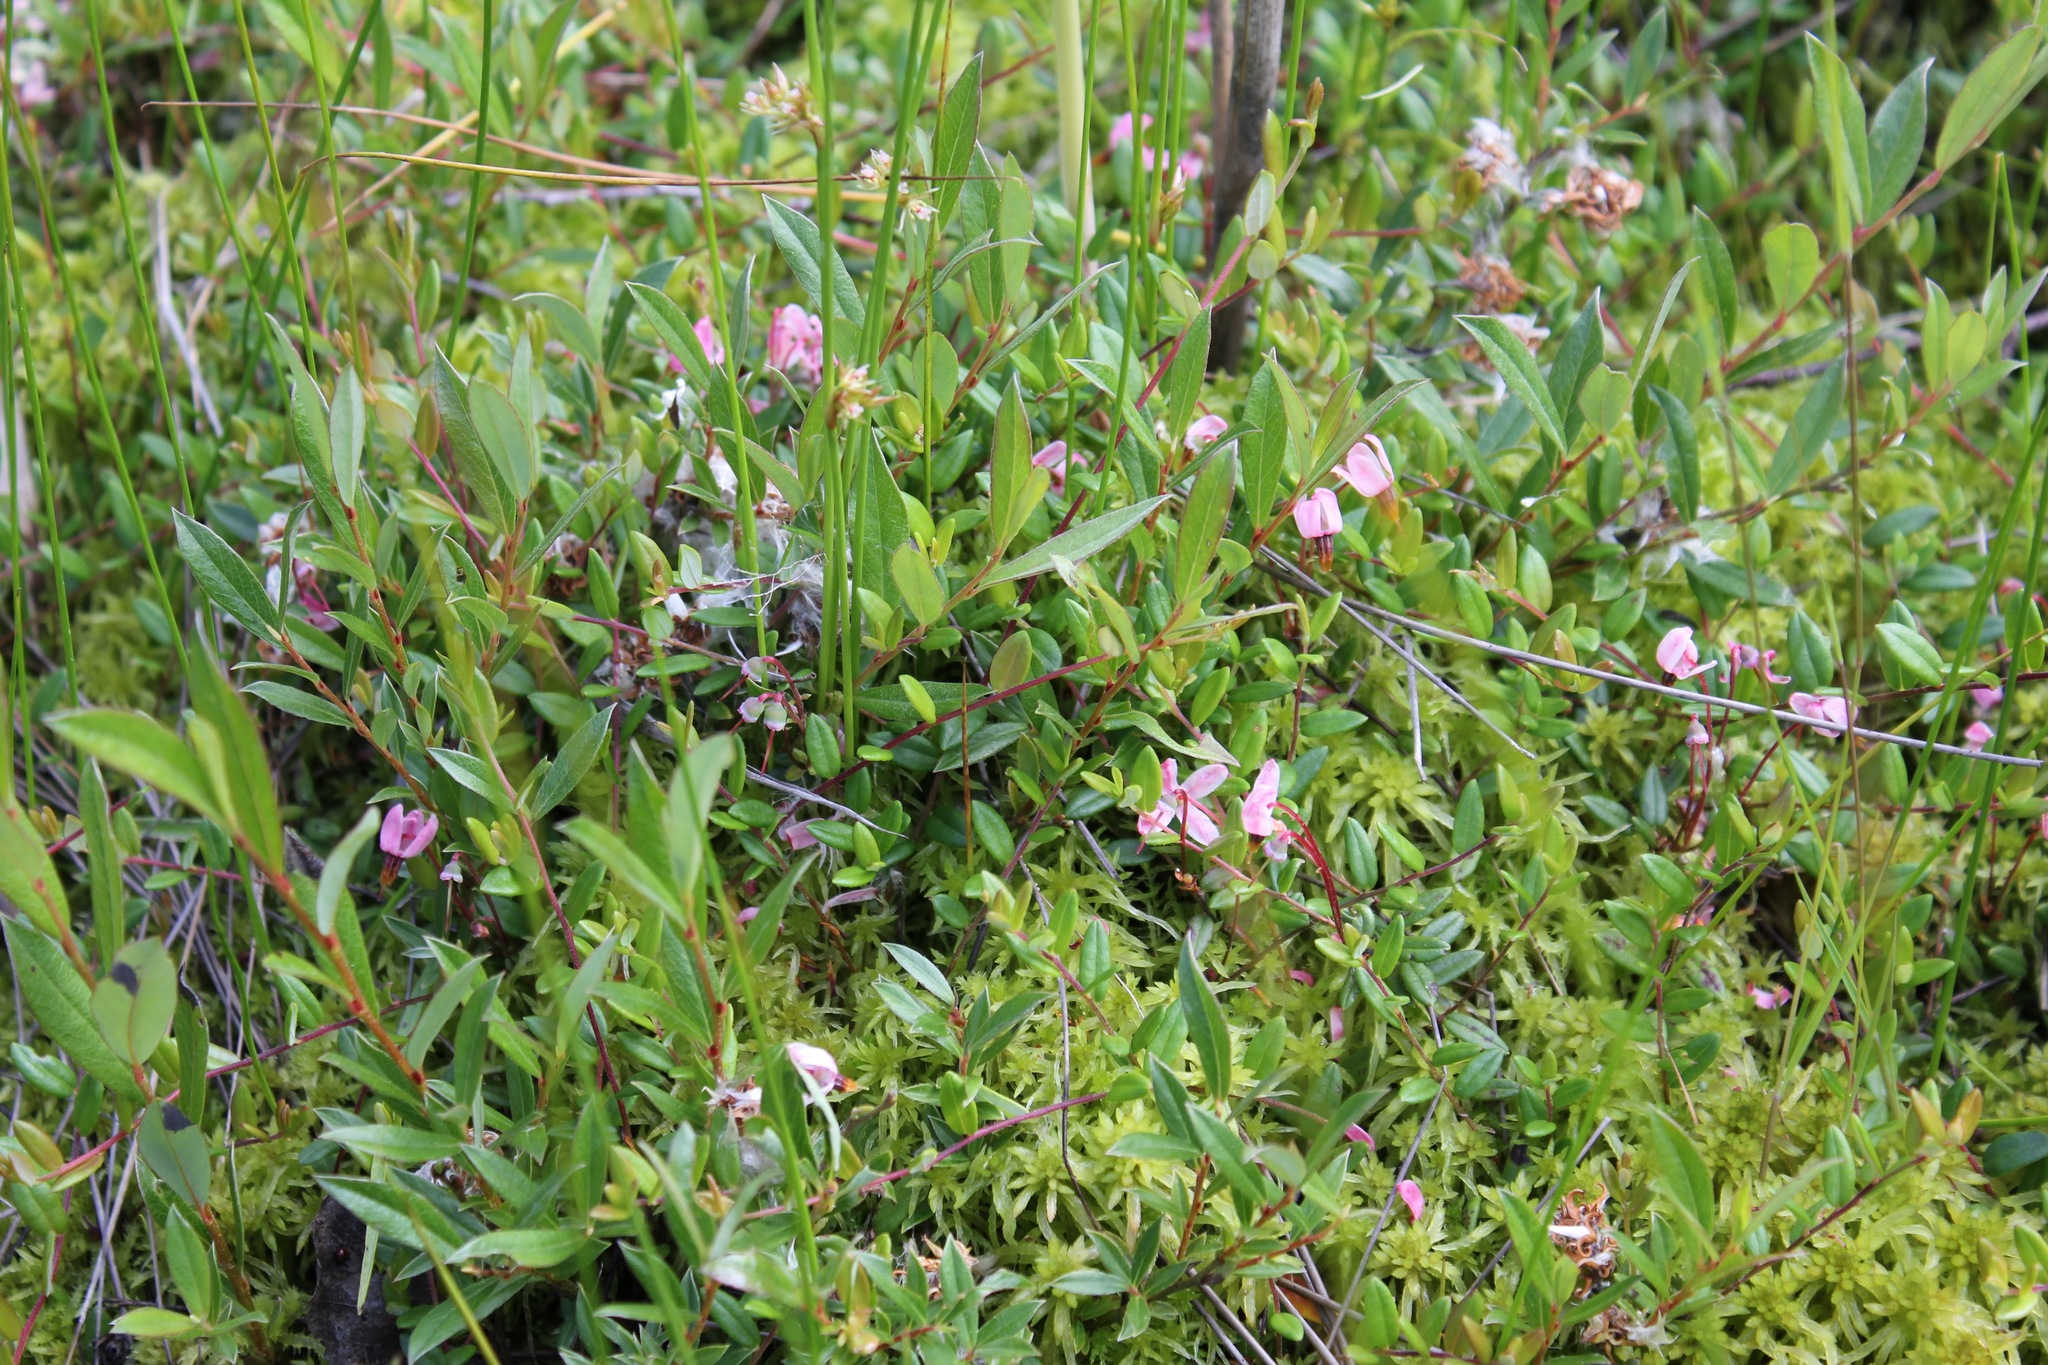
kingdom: Plantae
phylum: Tracheophyta
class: Magnoliopsida
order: Ericales
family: Ericaceae
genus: Vaccinium
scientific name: Vaccinium oxycoccos
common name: Cranberry
